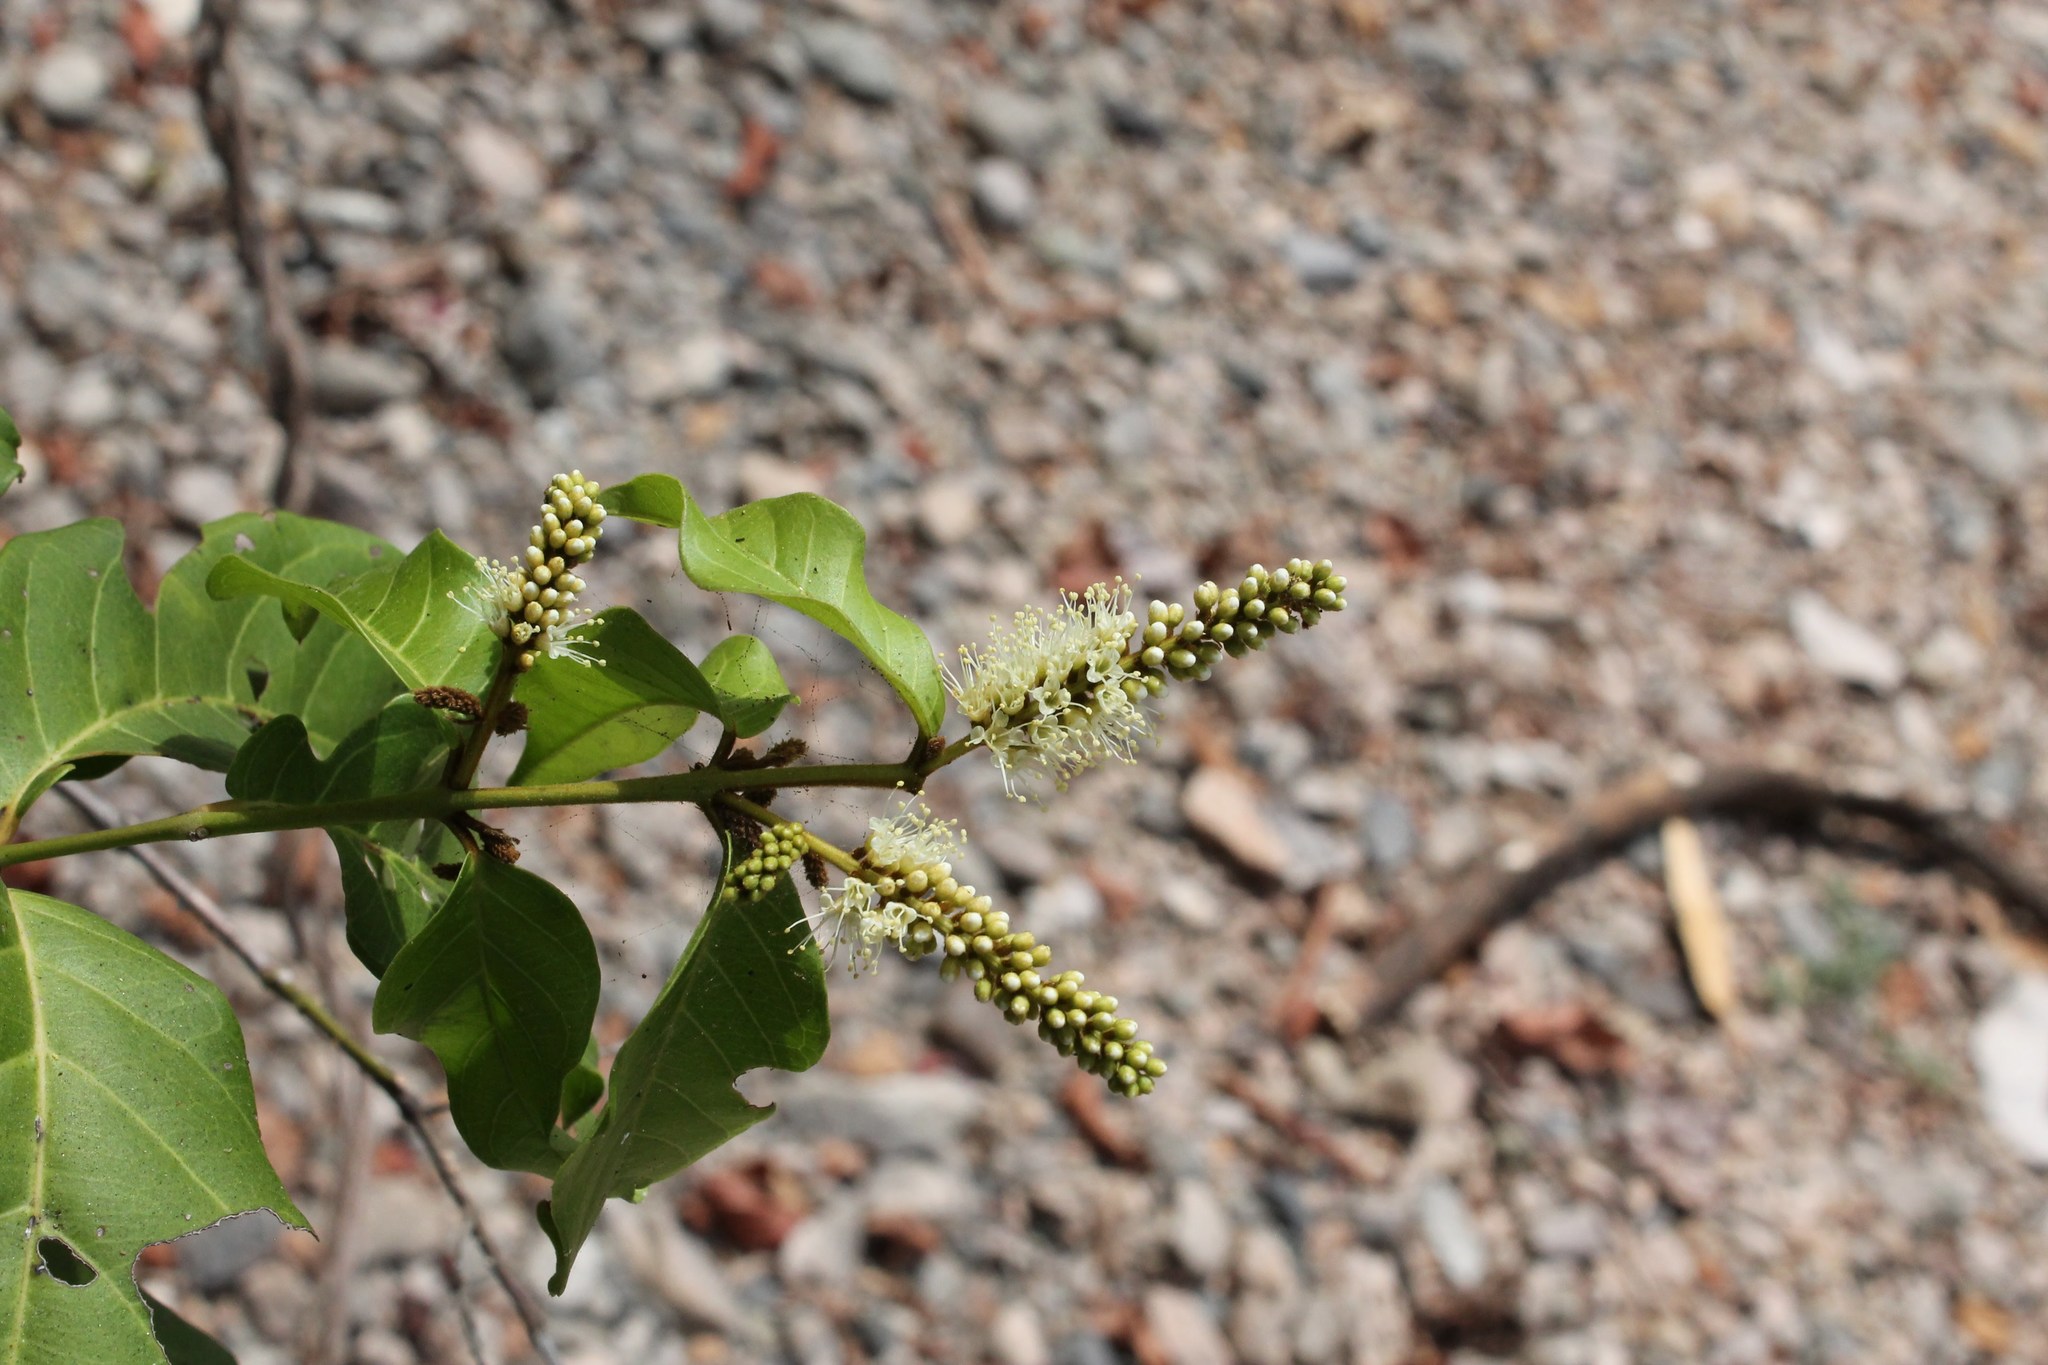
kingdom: Plantae
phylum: Tracheophyta
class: Magnoliopsida
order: Myrtales
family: Combretaceae
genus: Combretum
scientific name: Combretum laxum
